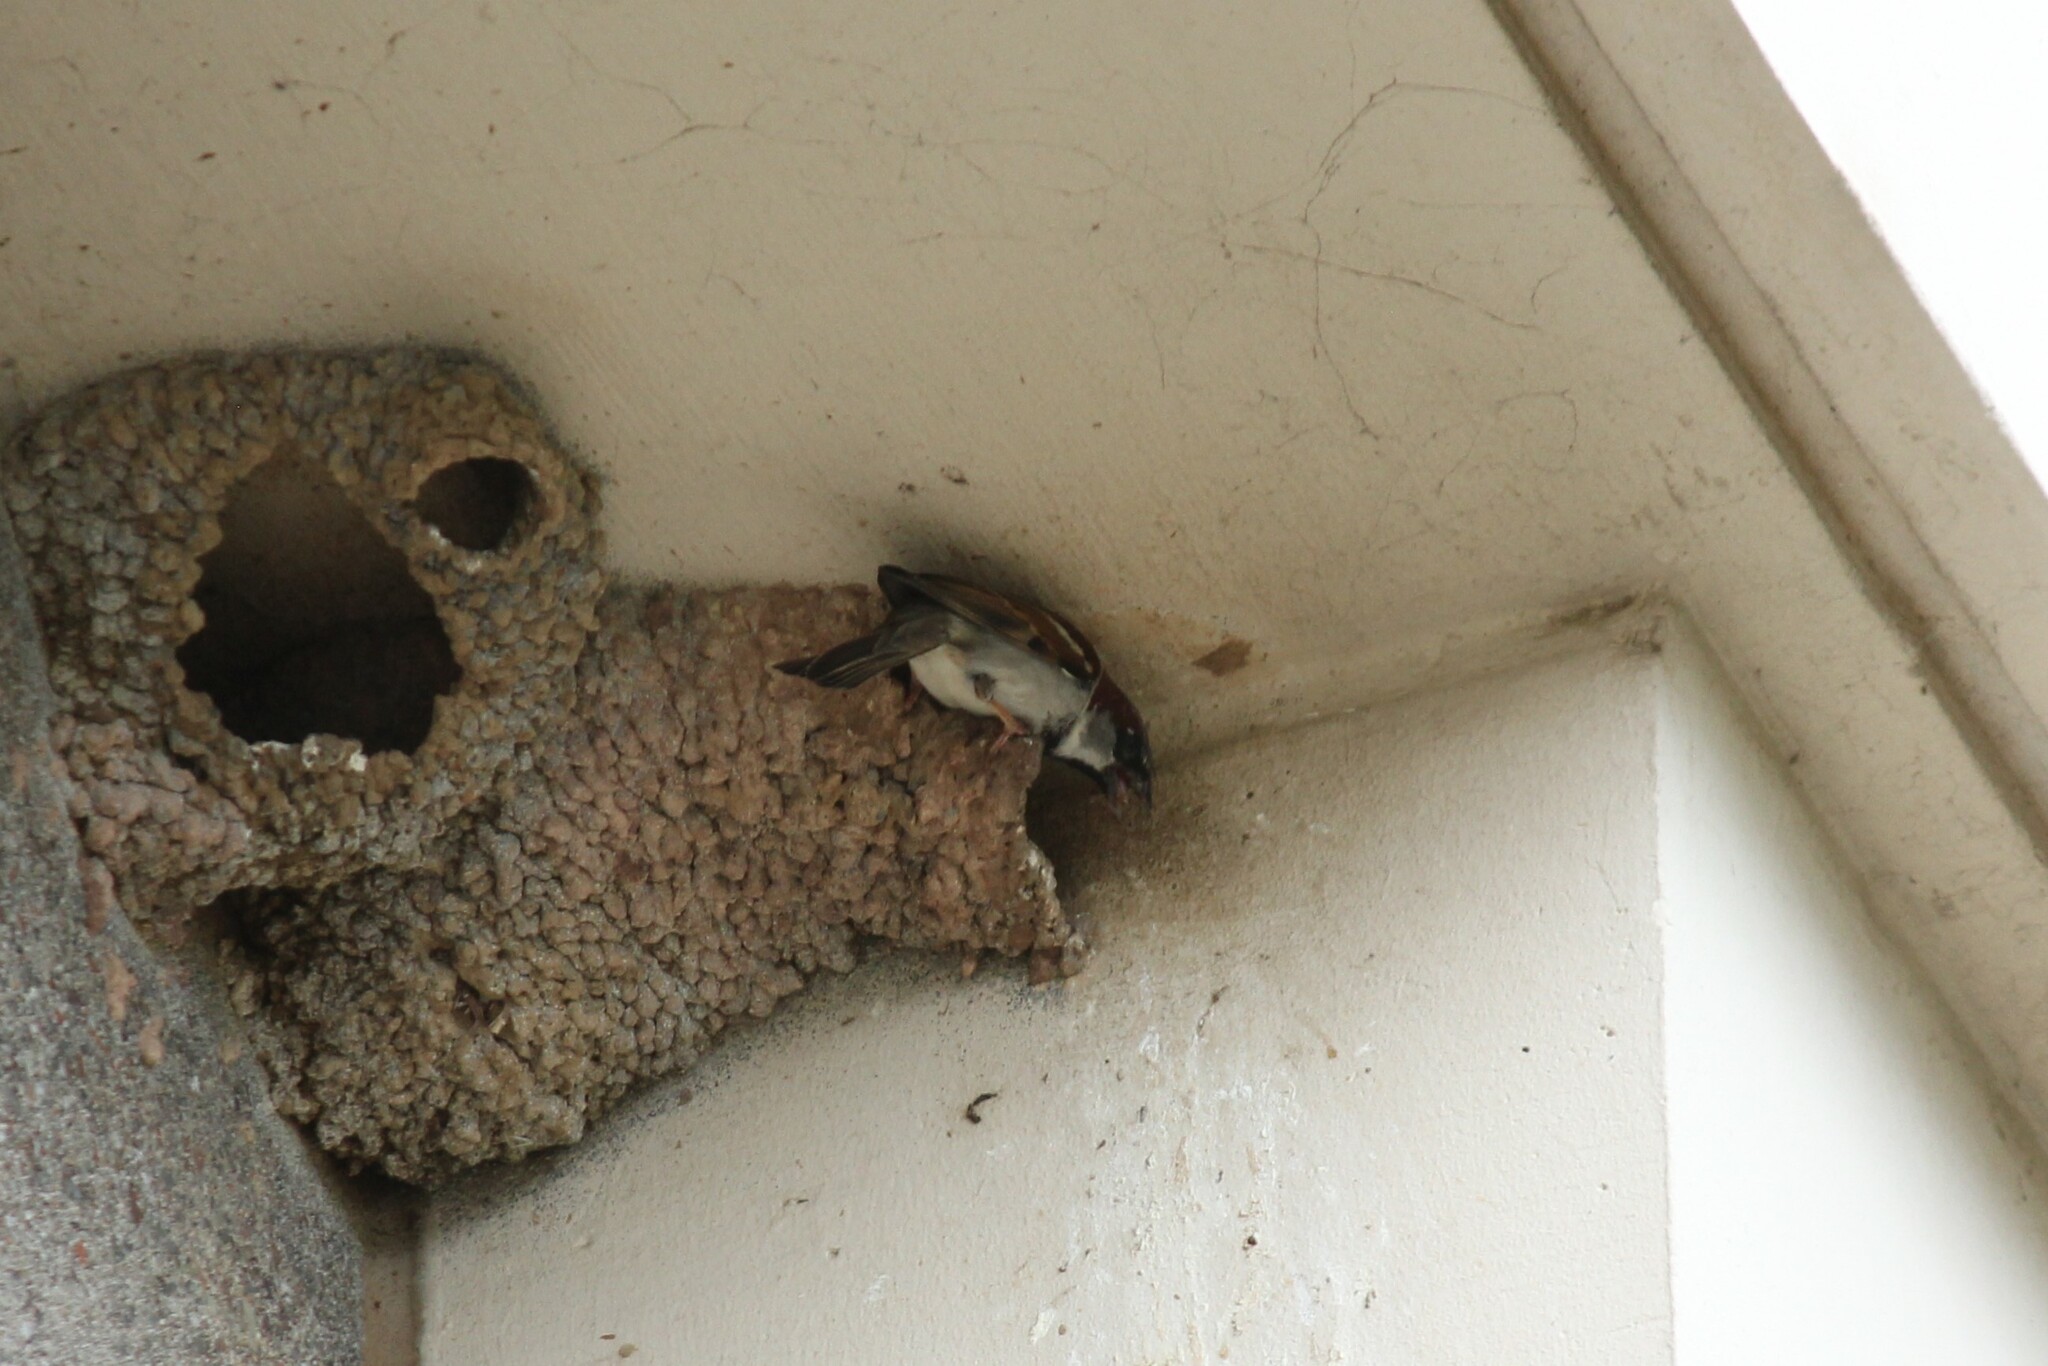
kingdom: Animalia
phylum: Chordata
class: Aves
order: Passeriformes
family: Passeridae
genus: Passer
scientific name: Passer domesticus
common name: House sparrow
